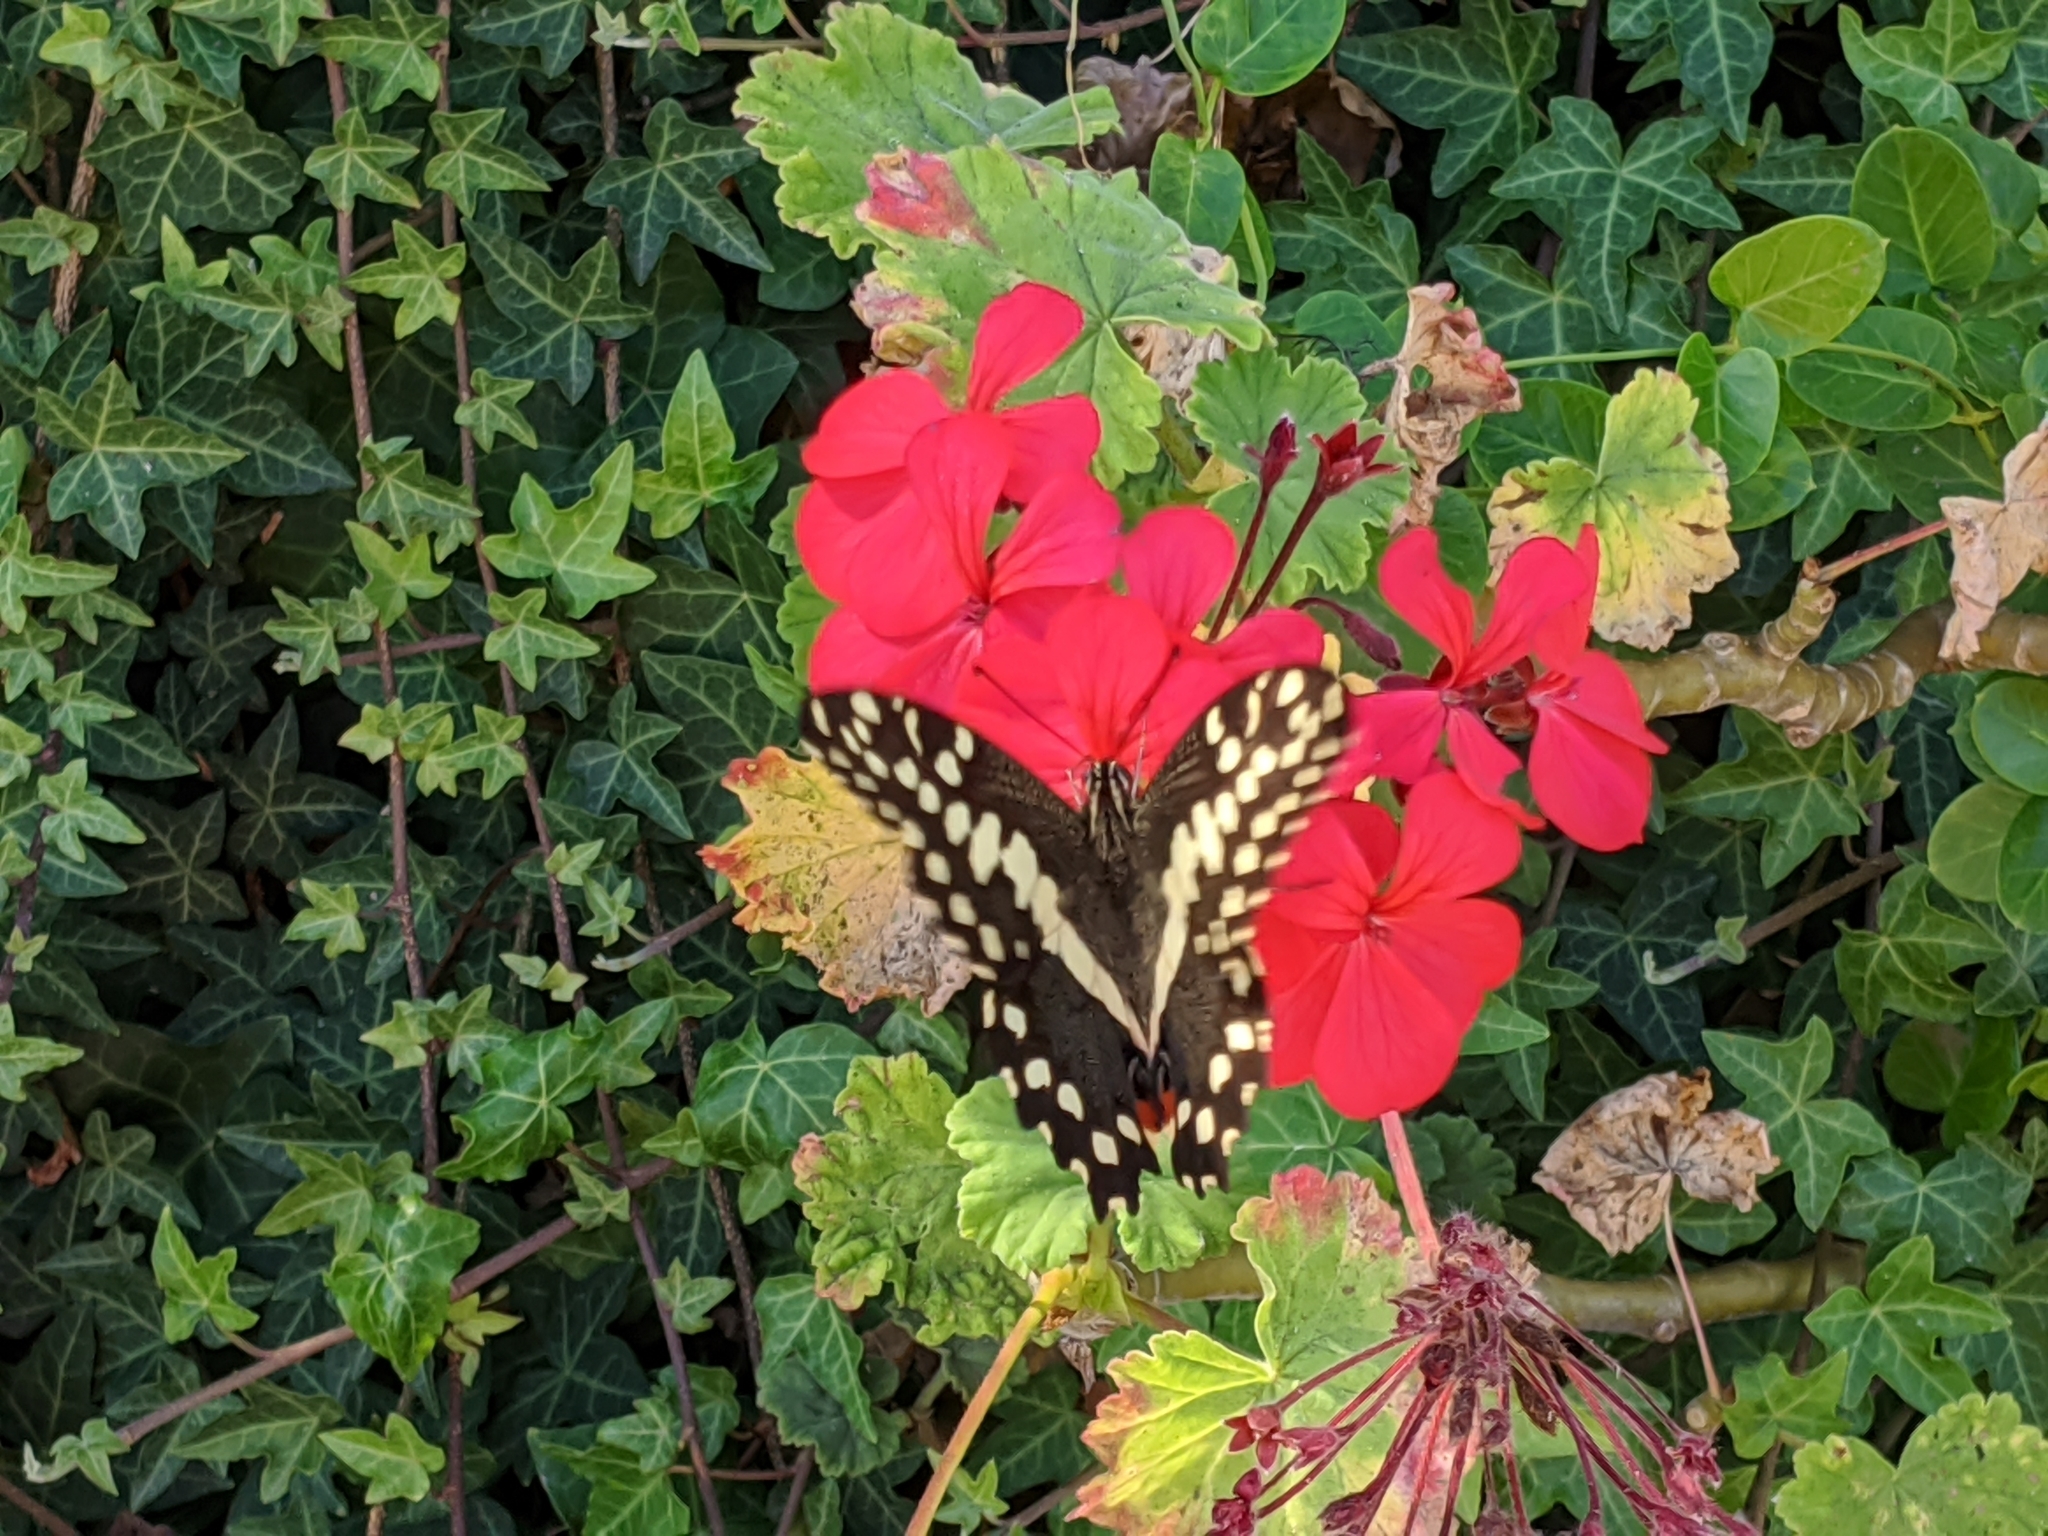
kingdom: Animalia
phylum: Arthropoda
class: Insecta
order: Lepidoptera
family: Papilionidae
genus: Papilio
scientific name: Papilio demodocus
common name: Christmas butterfly
